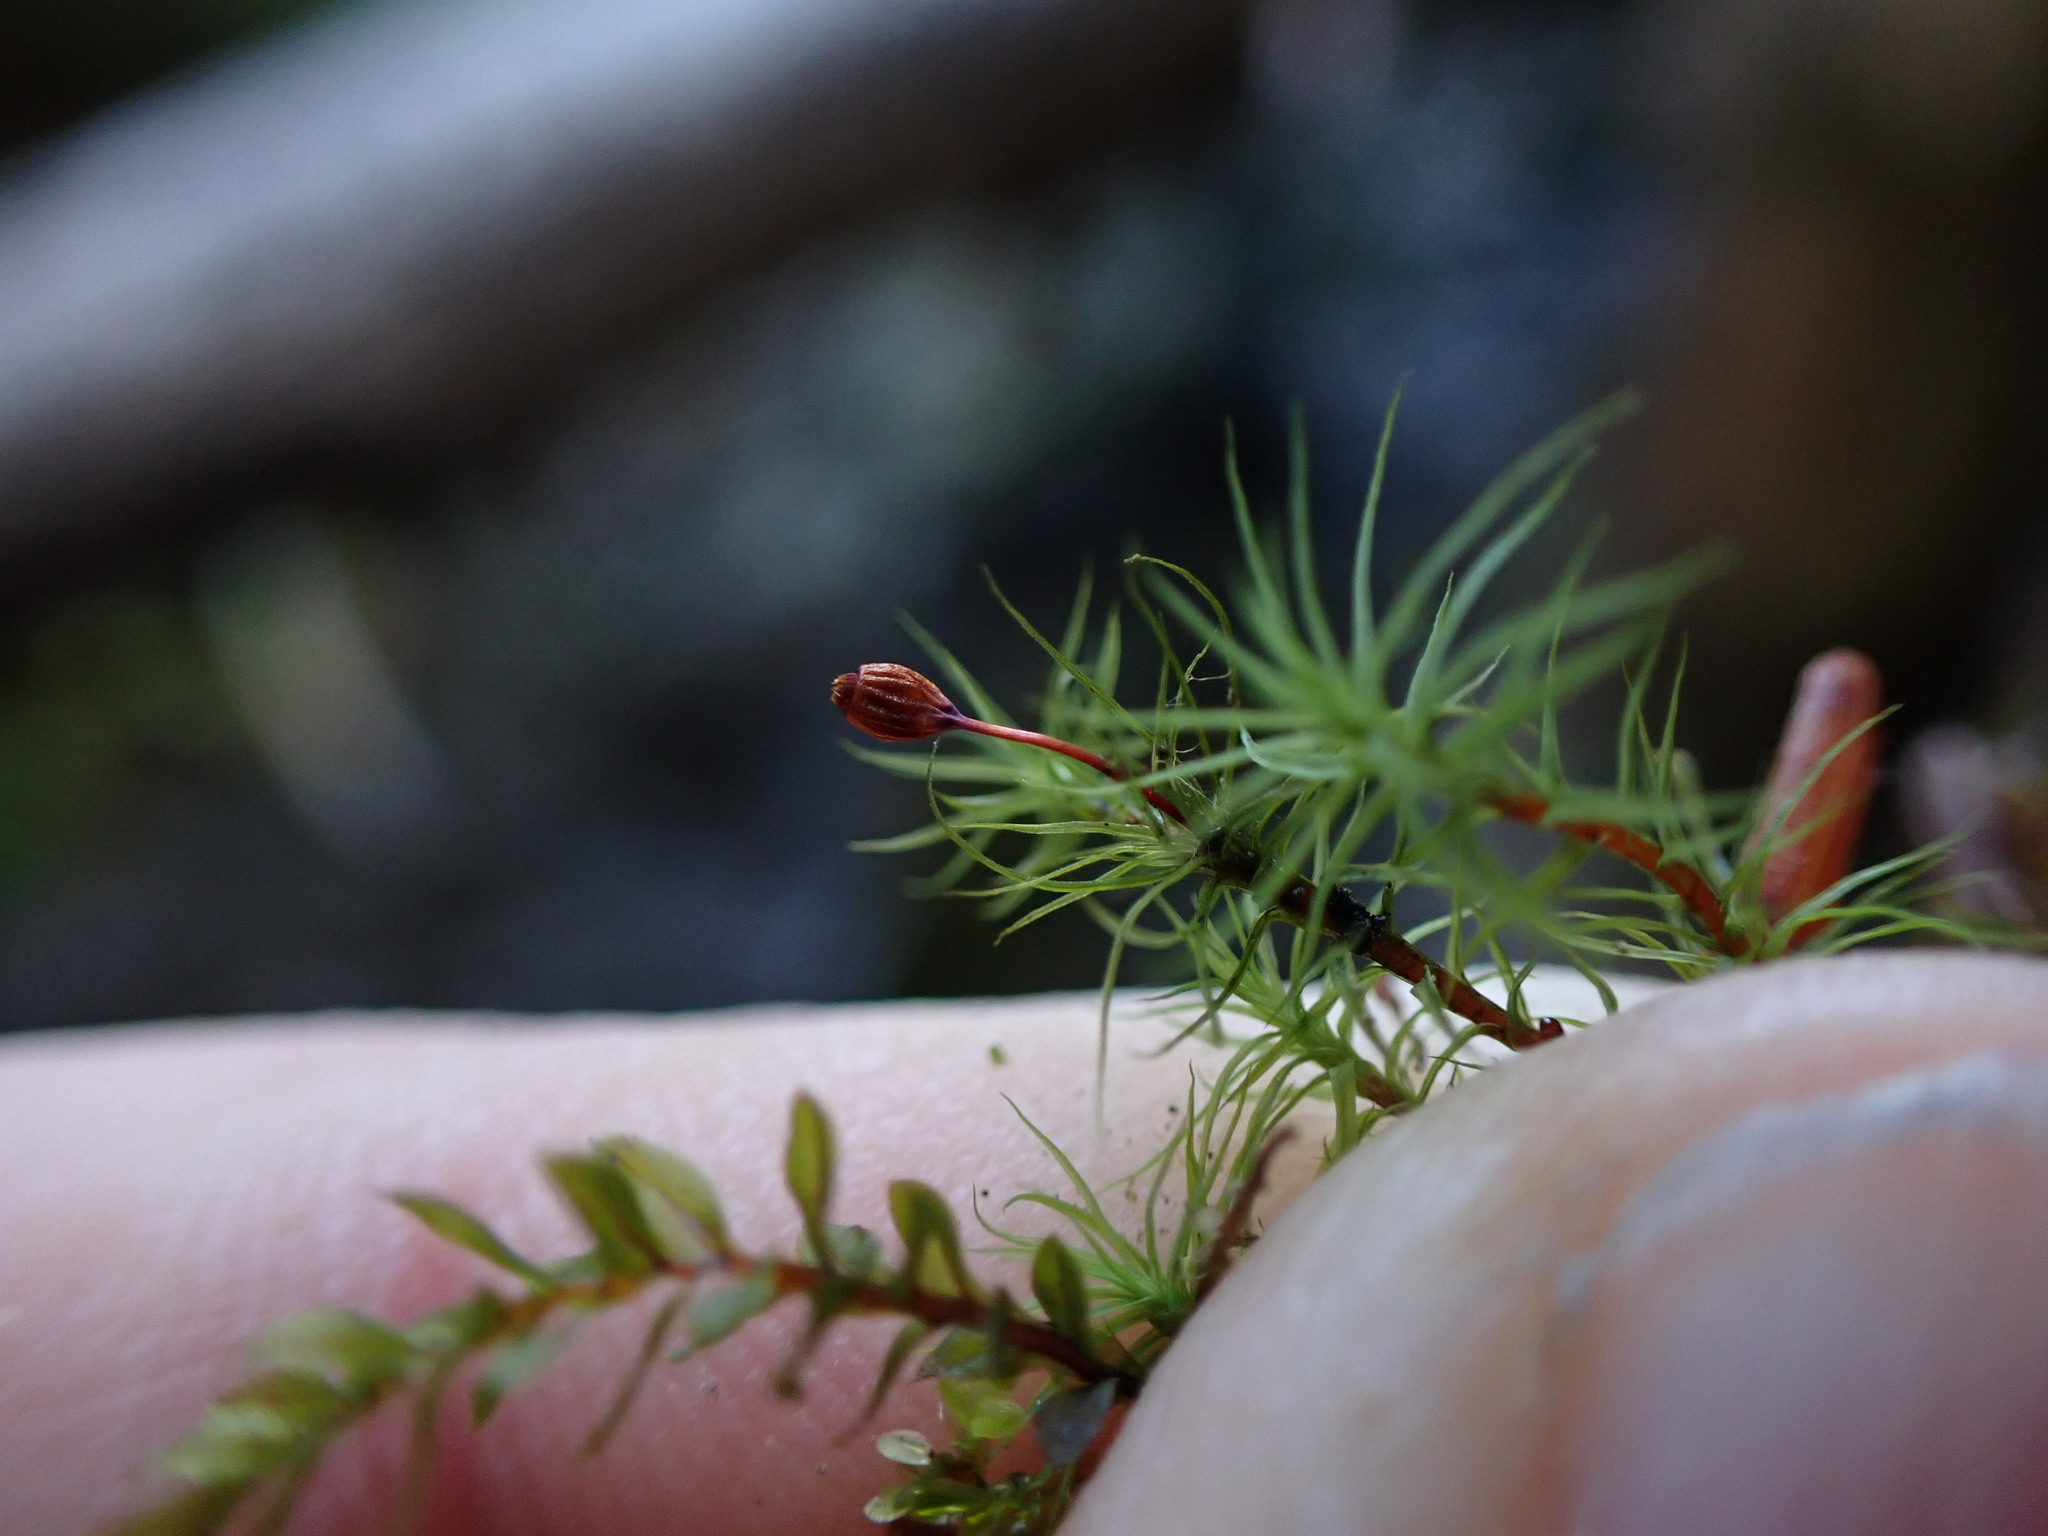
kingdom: Plantae
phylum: Bryophyta
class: Bryopsida
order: Bartramiales
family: Bartramiaceae
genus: Bartramia
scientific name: Bartramia ithyphylla
